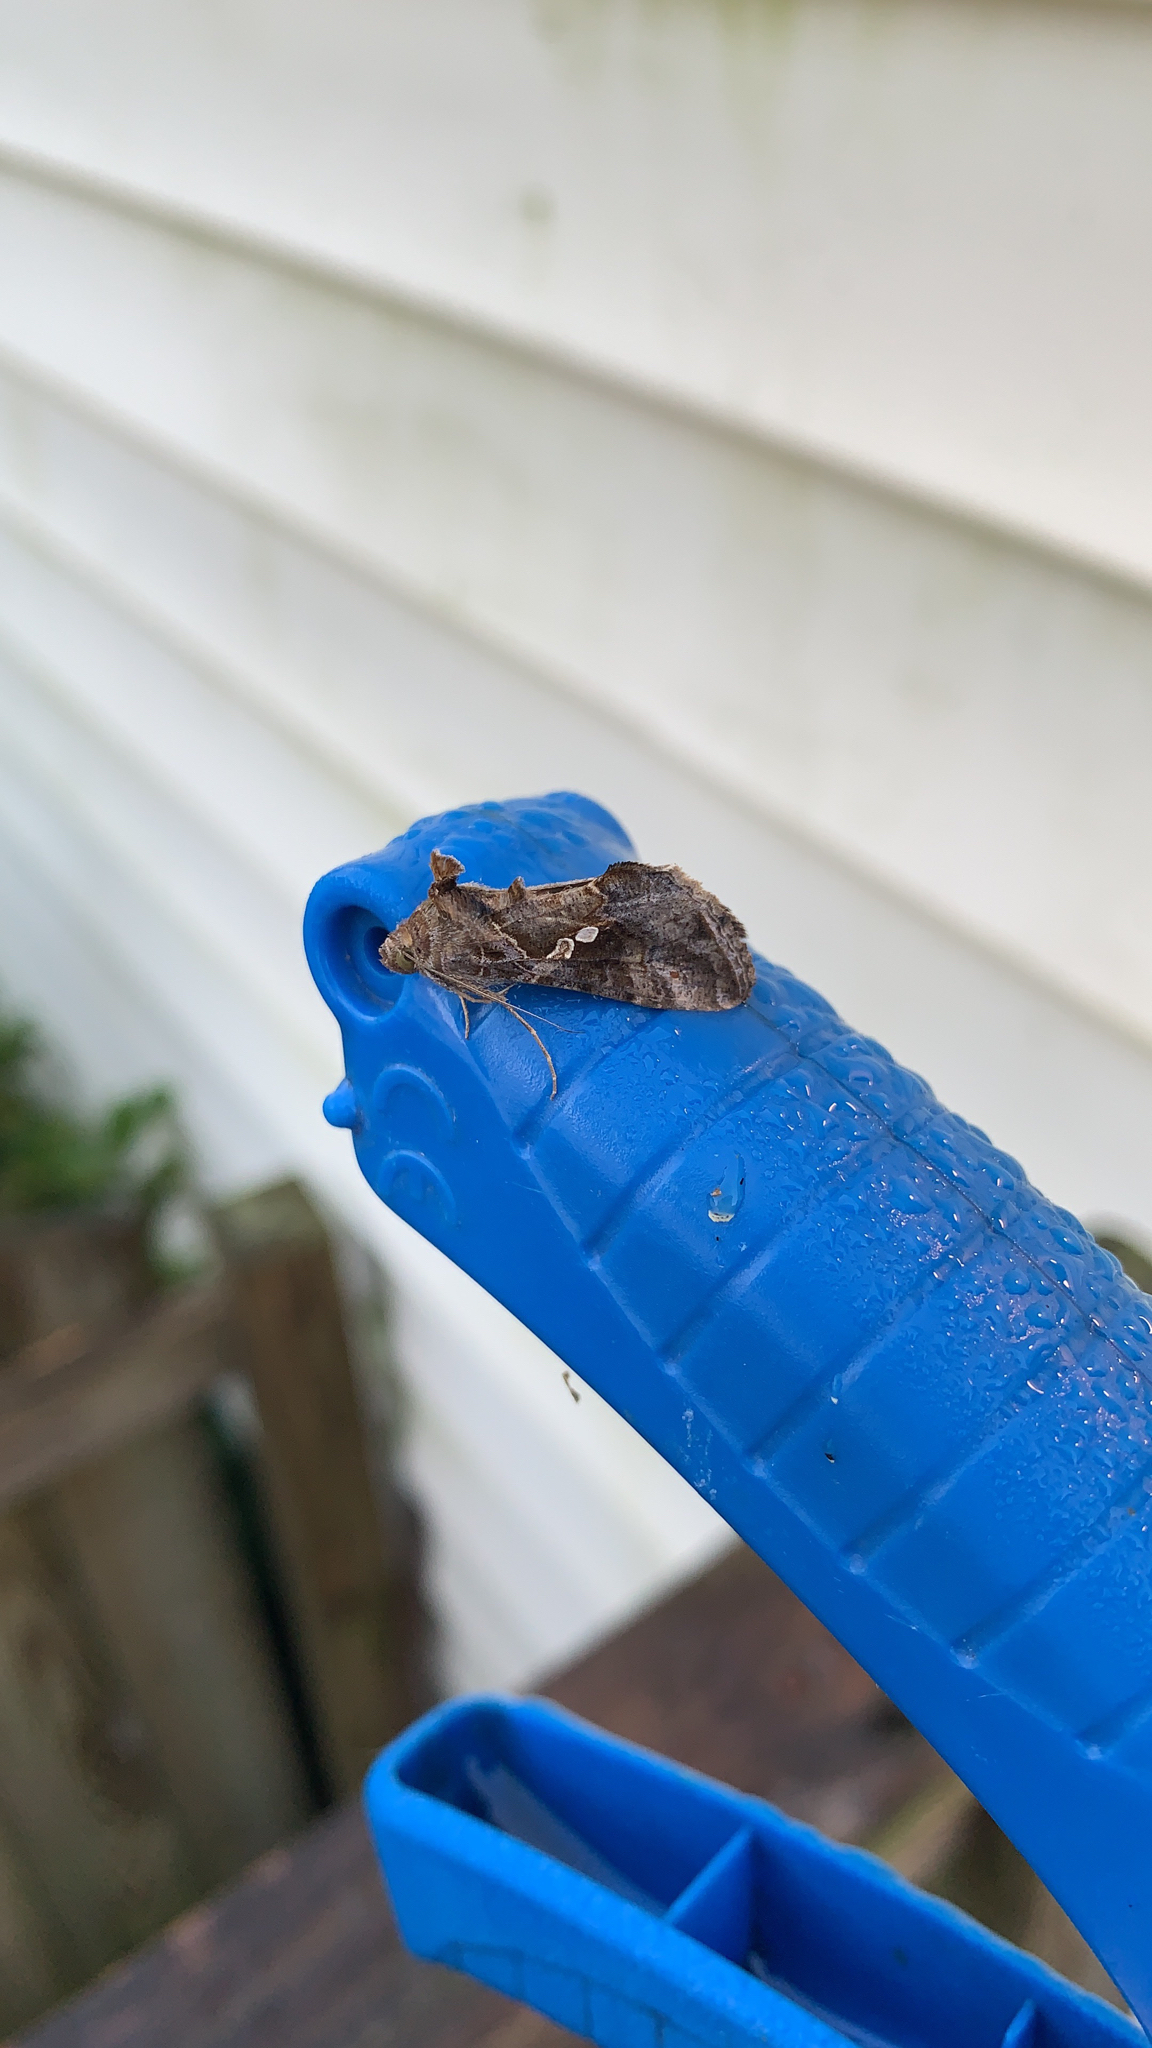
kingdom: Animalia
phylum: Arthropoda
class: Insecta
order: Lepidoptera
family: Noctuidae
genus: Chrysodeixis
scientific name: Chrysodeixis includens
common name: Cutworm moth
